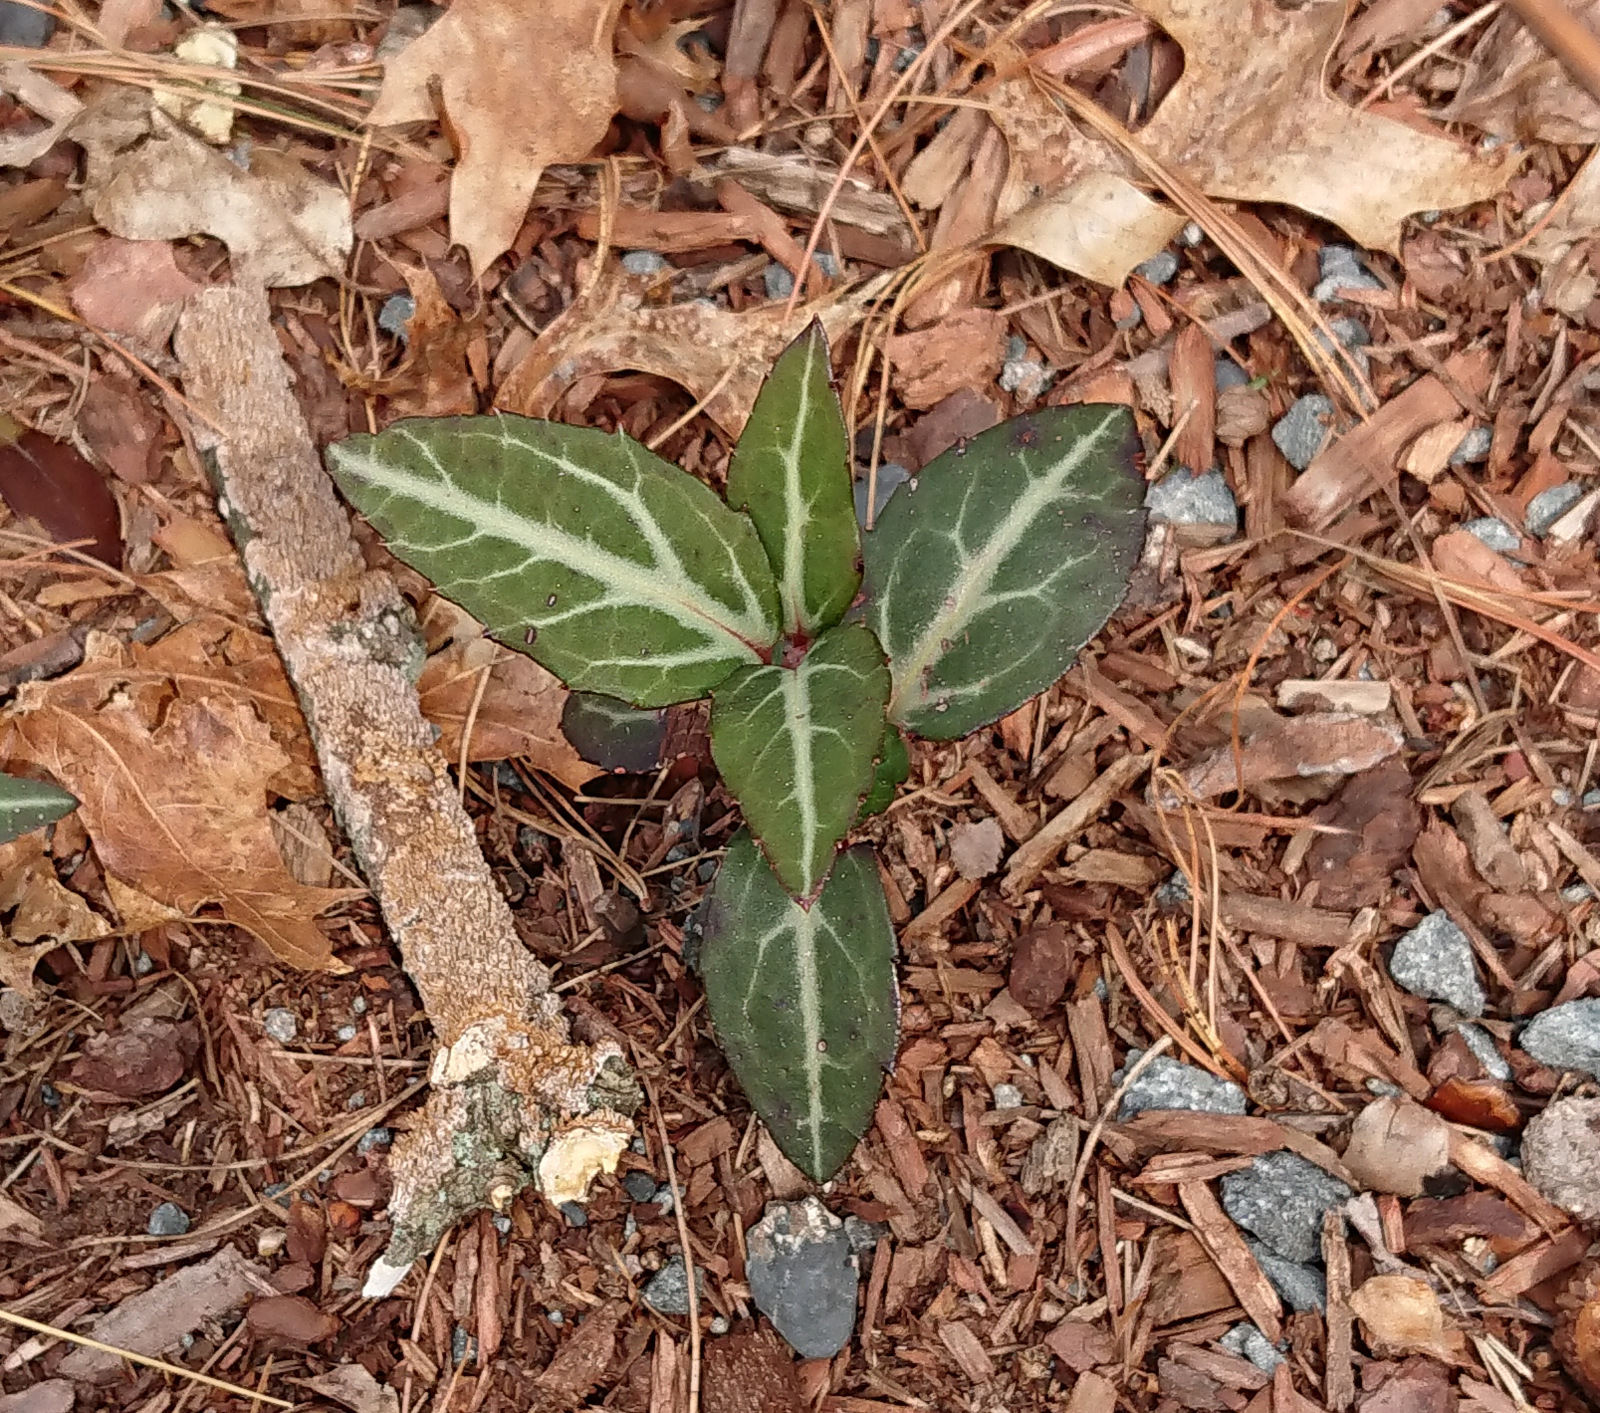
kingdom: Plantae
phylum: Tracheophyta
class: Magnoliopsida
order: Ericales
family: Ericaceae
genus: Chimaphila
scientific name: Chimaphila maculata
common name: Spotted pipsissewa
